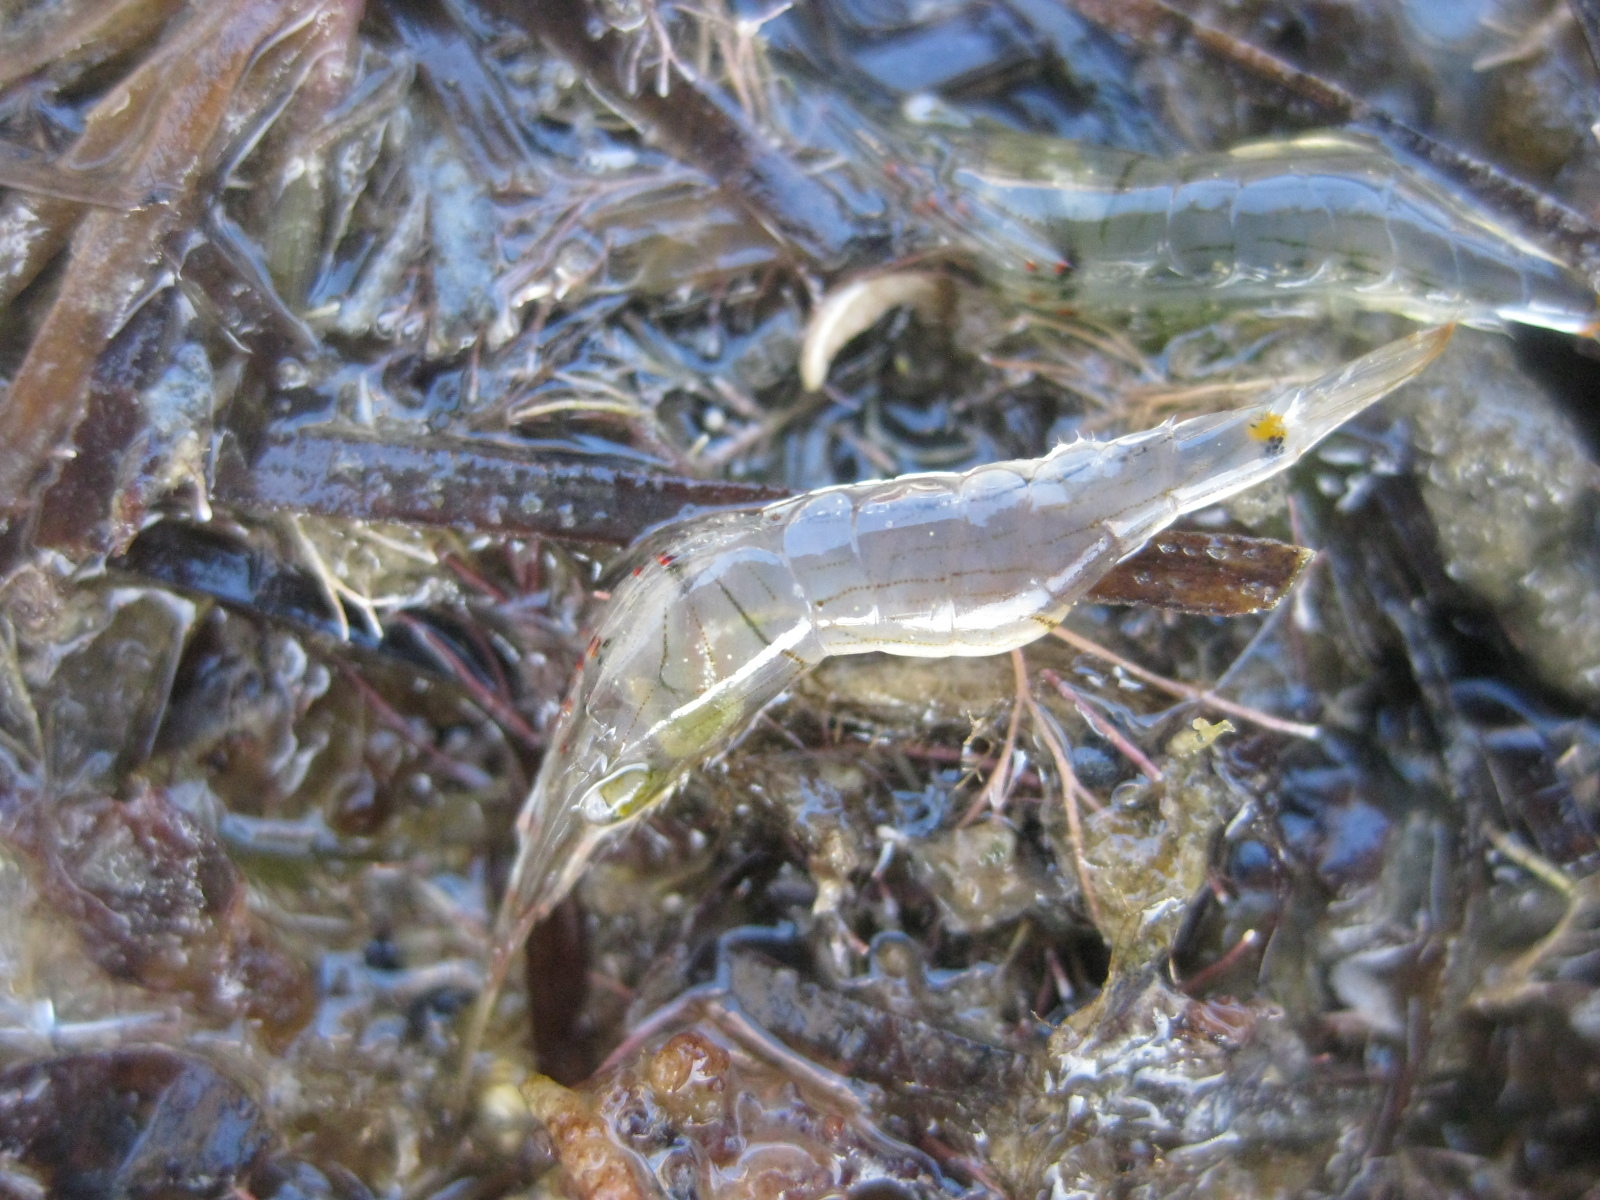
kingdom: Animalia
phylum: Arthropoda
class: Malacostraca
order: Decapoda
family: Palaemonidae
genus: Palaemon
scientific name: Palaemon affinis
